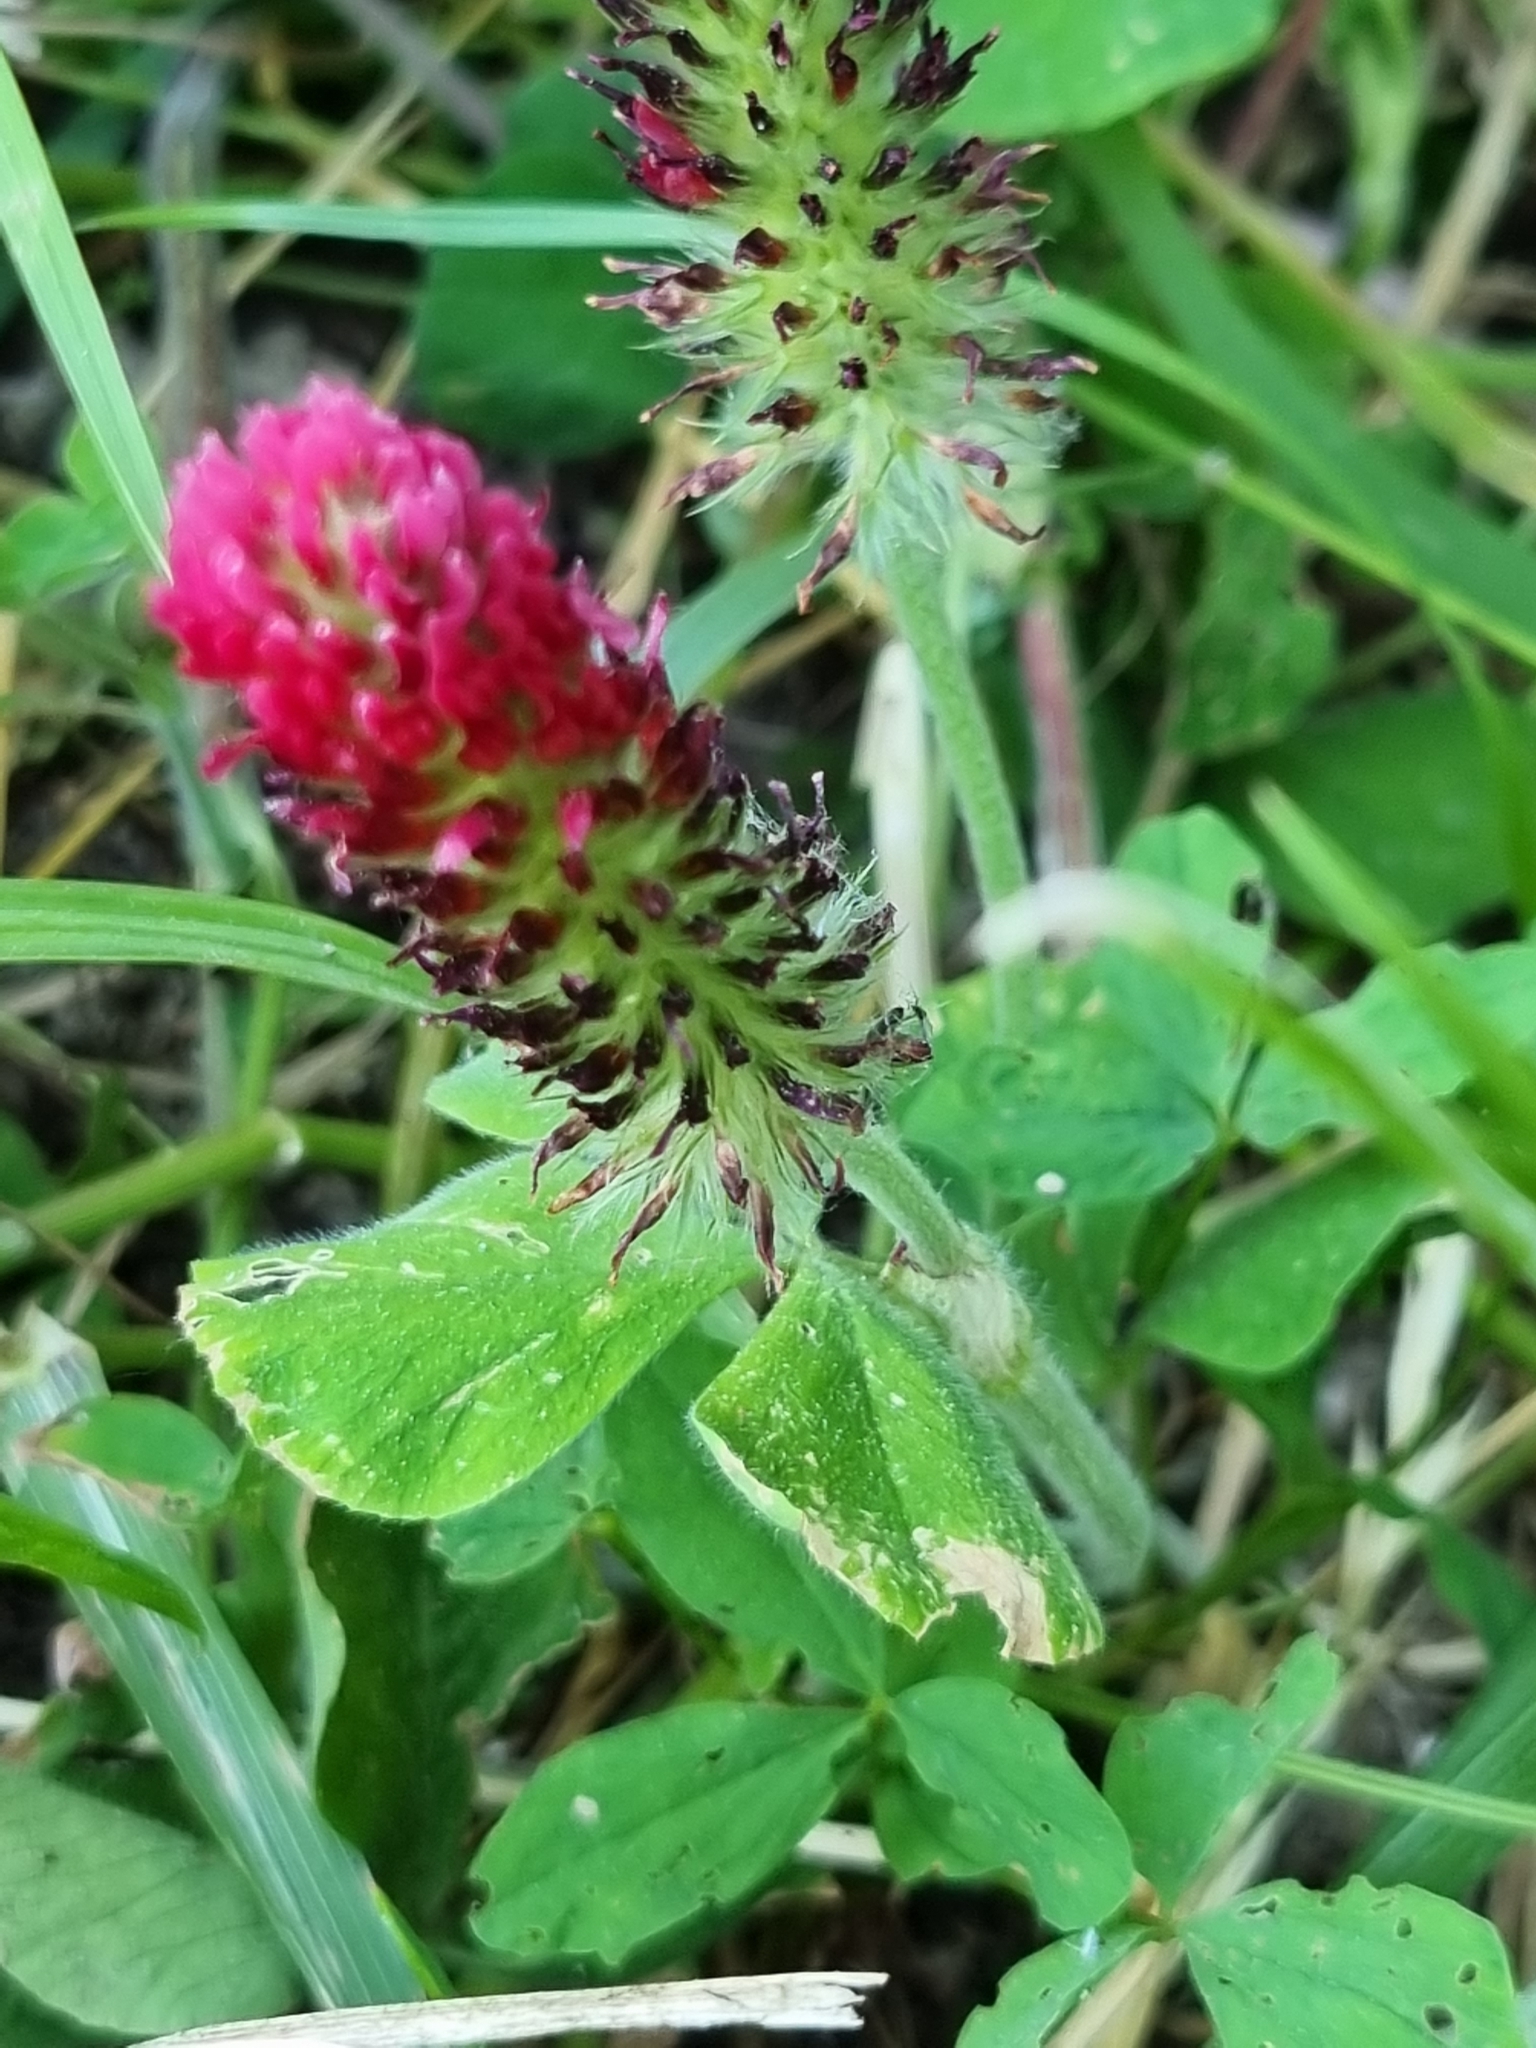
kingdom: Plantae
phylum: Tracheophyta
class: Magnoliopsida
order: Fabales
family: Fabaceae
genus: Trifolium
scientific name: Trifolium incarnatum
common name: Crimson clover
